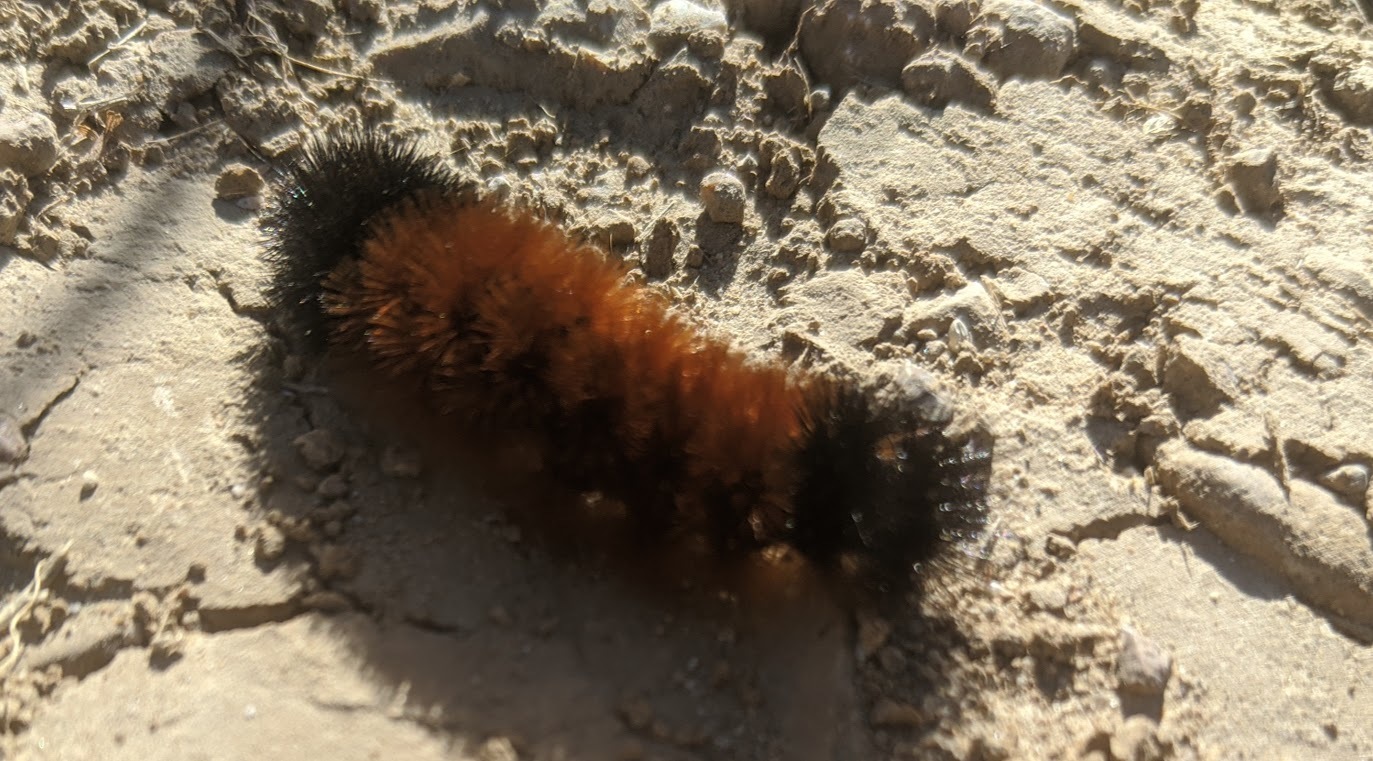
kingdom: Animalia
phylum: Arthropoda
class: Insecta
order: Lepidoptera
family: Erebidae
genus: Pyrrharctia
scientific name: Pyrrharctia isabella
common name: Isabella tiger moth
